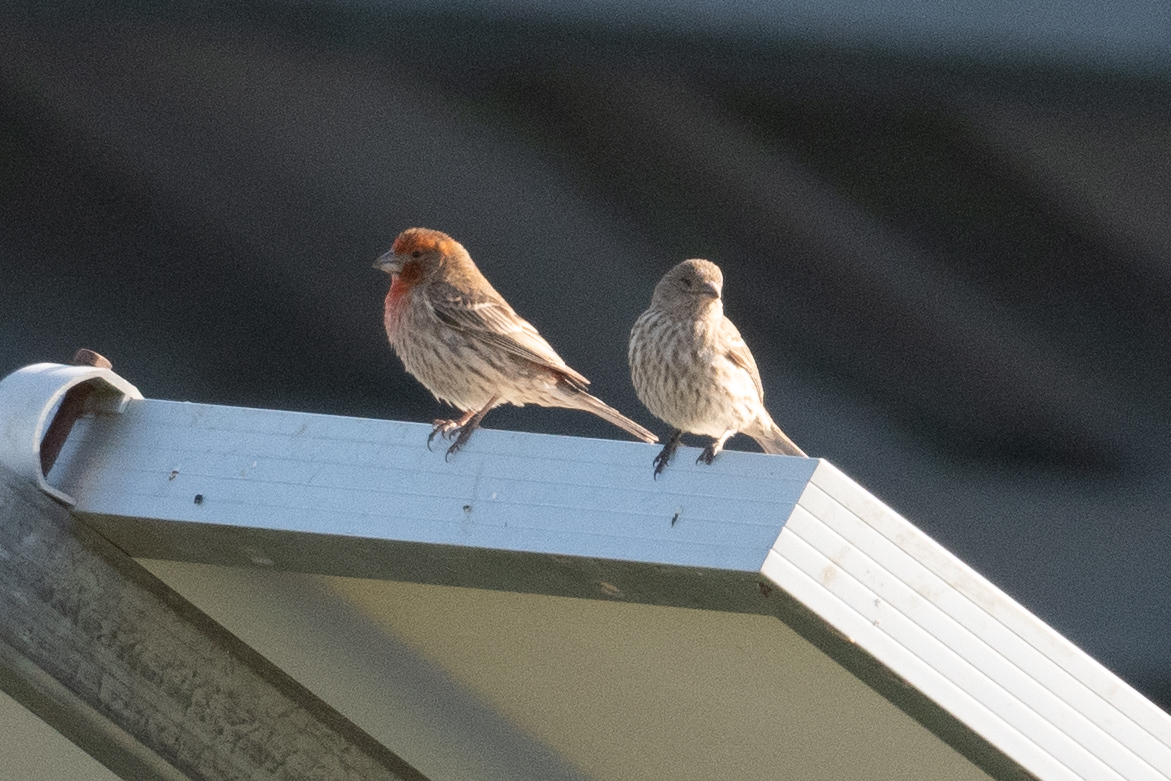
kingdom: Animalia
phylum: Chordata
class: Aves
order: Passeriformes
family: Fringillidae
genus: Haemorhous
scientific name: Haemorhous mexicanus
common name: House finch
